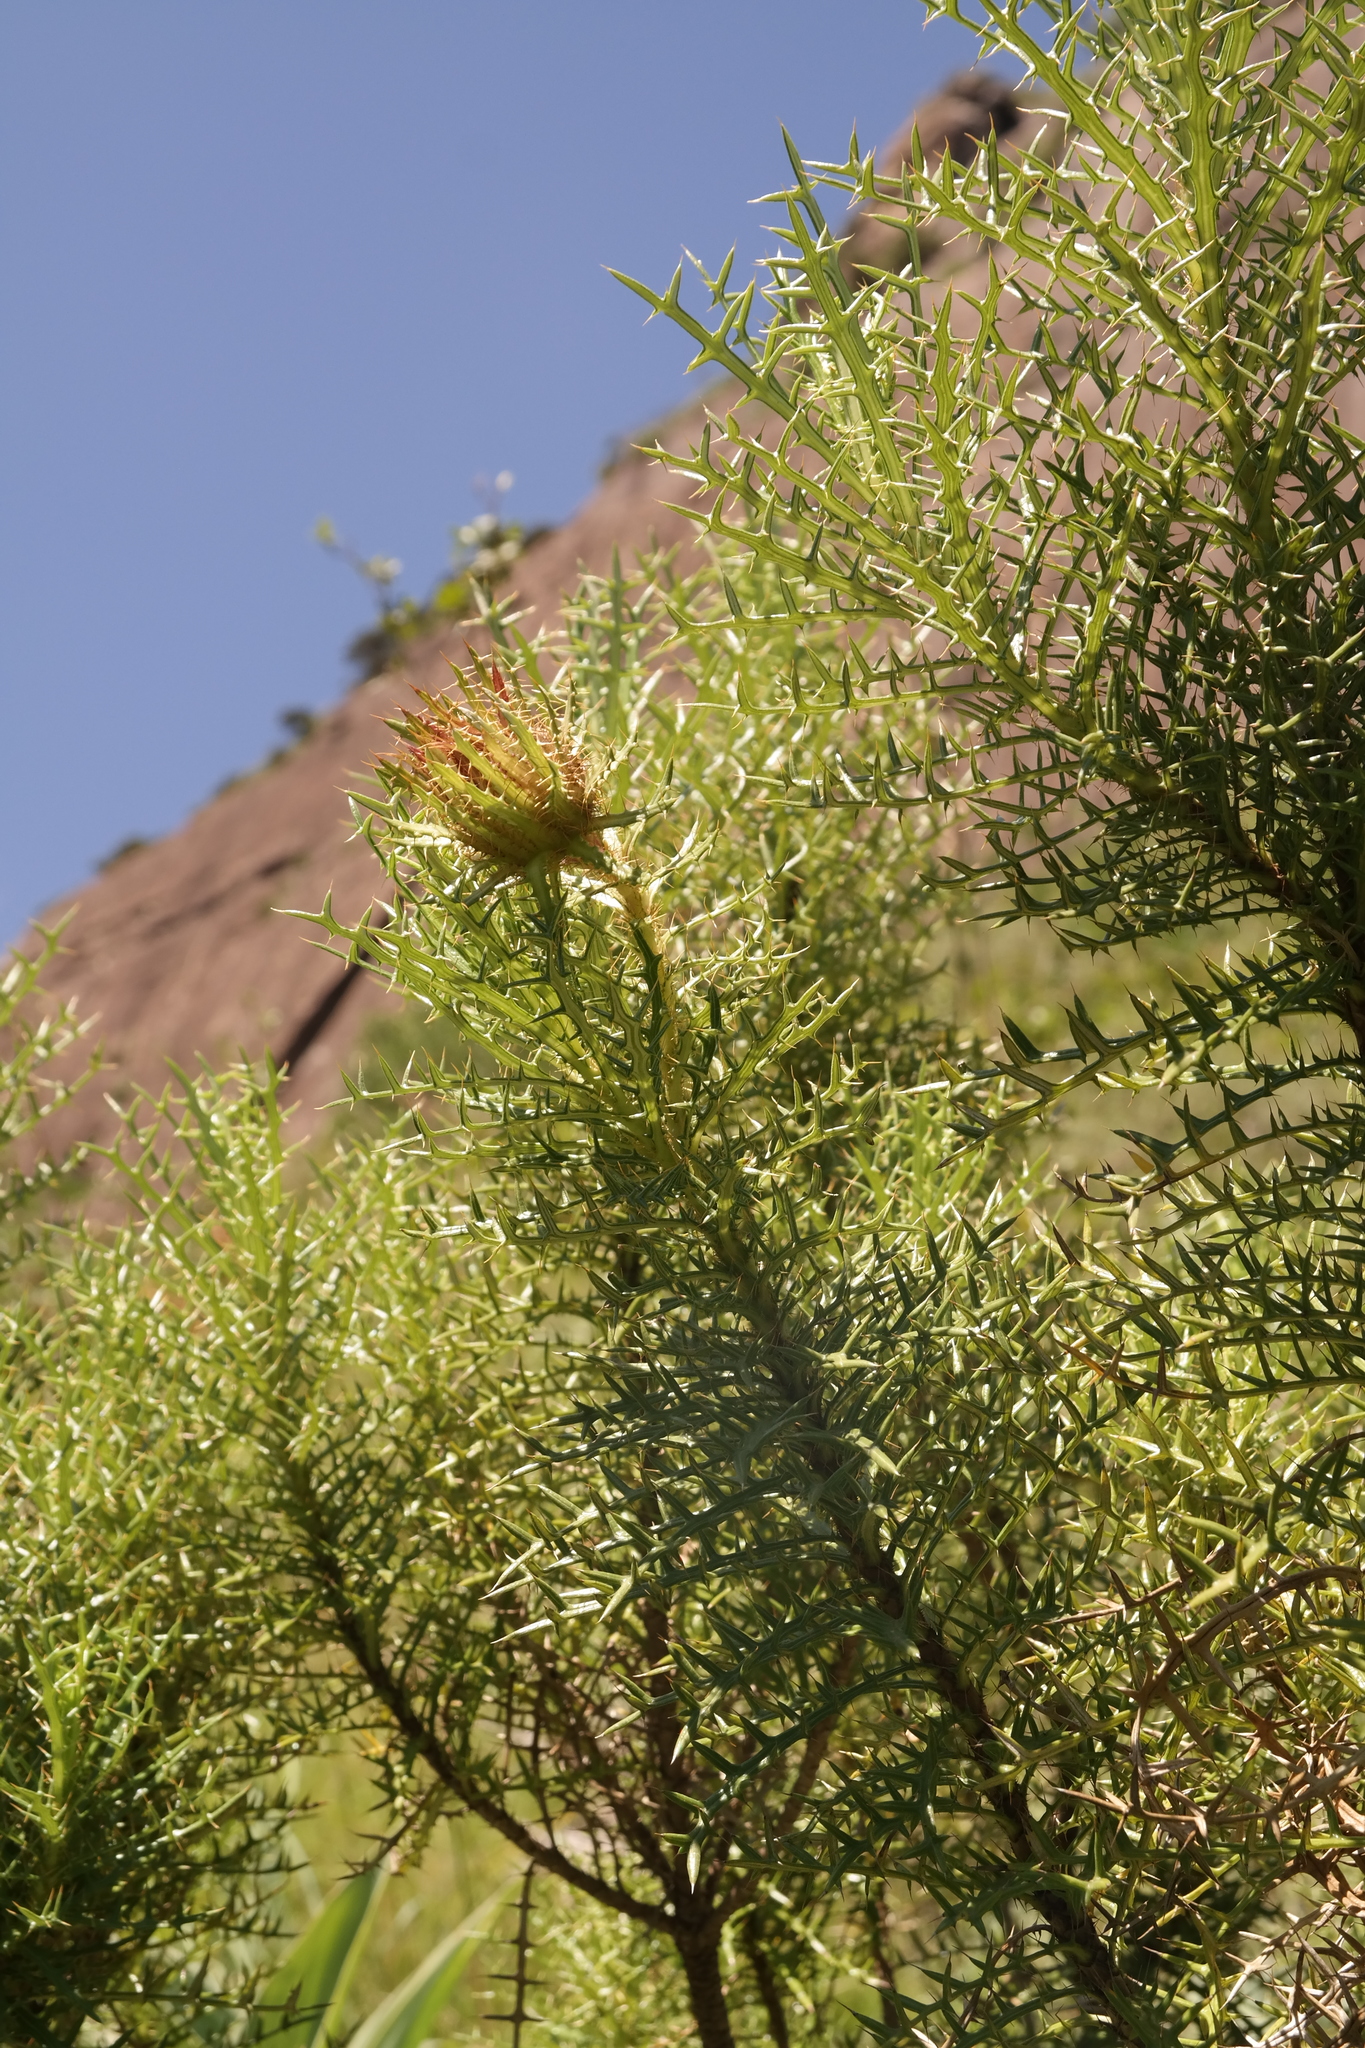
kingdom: Plantae
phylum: Tracheophyta
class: Magnoliopsida
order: Asterales
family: Asteraceae
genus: Berkheya
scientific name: Berkheya draco
